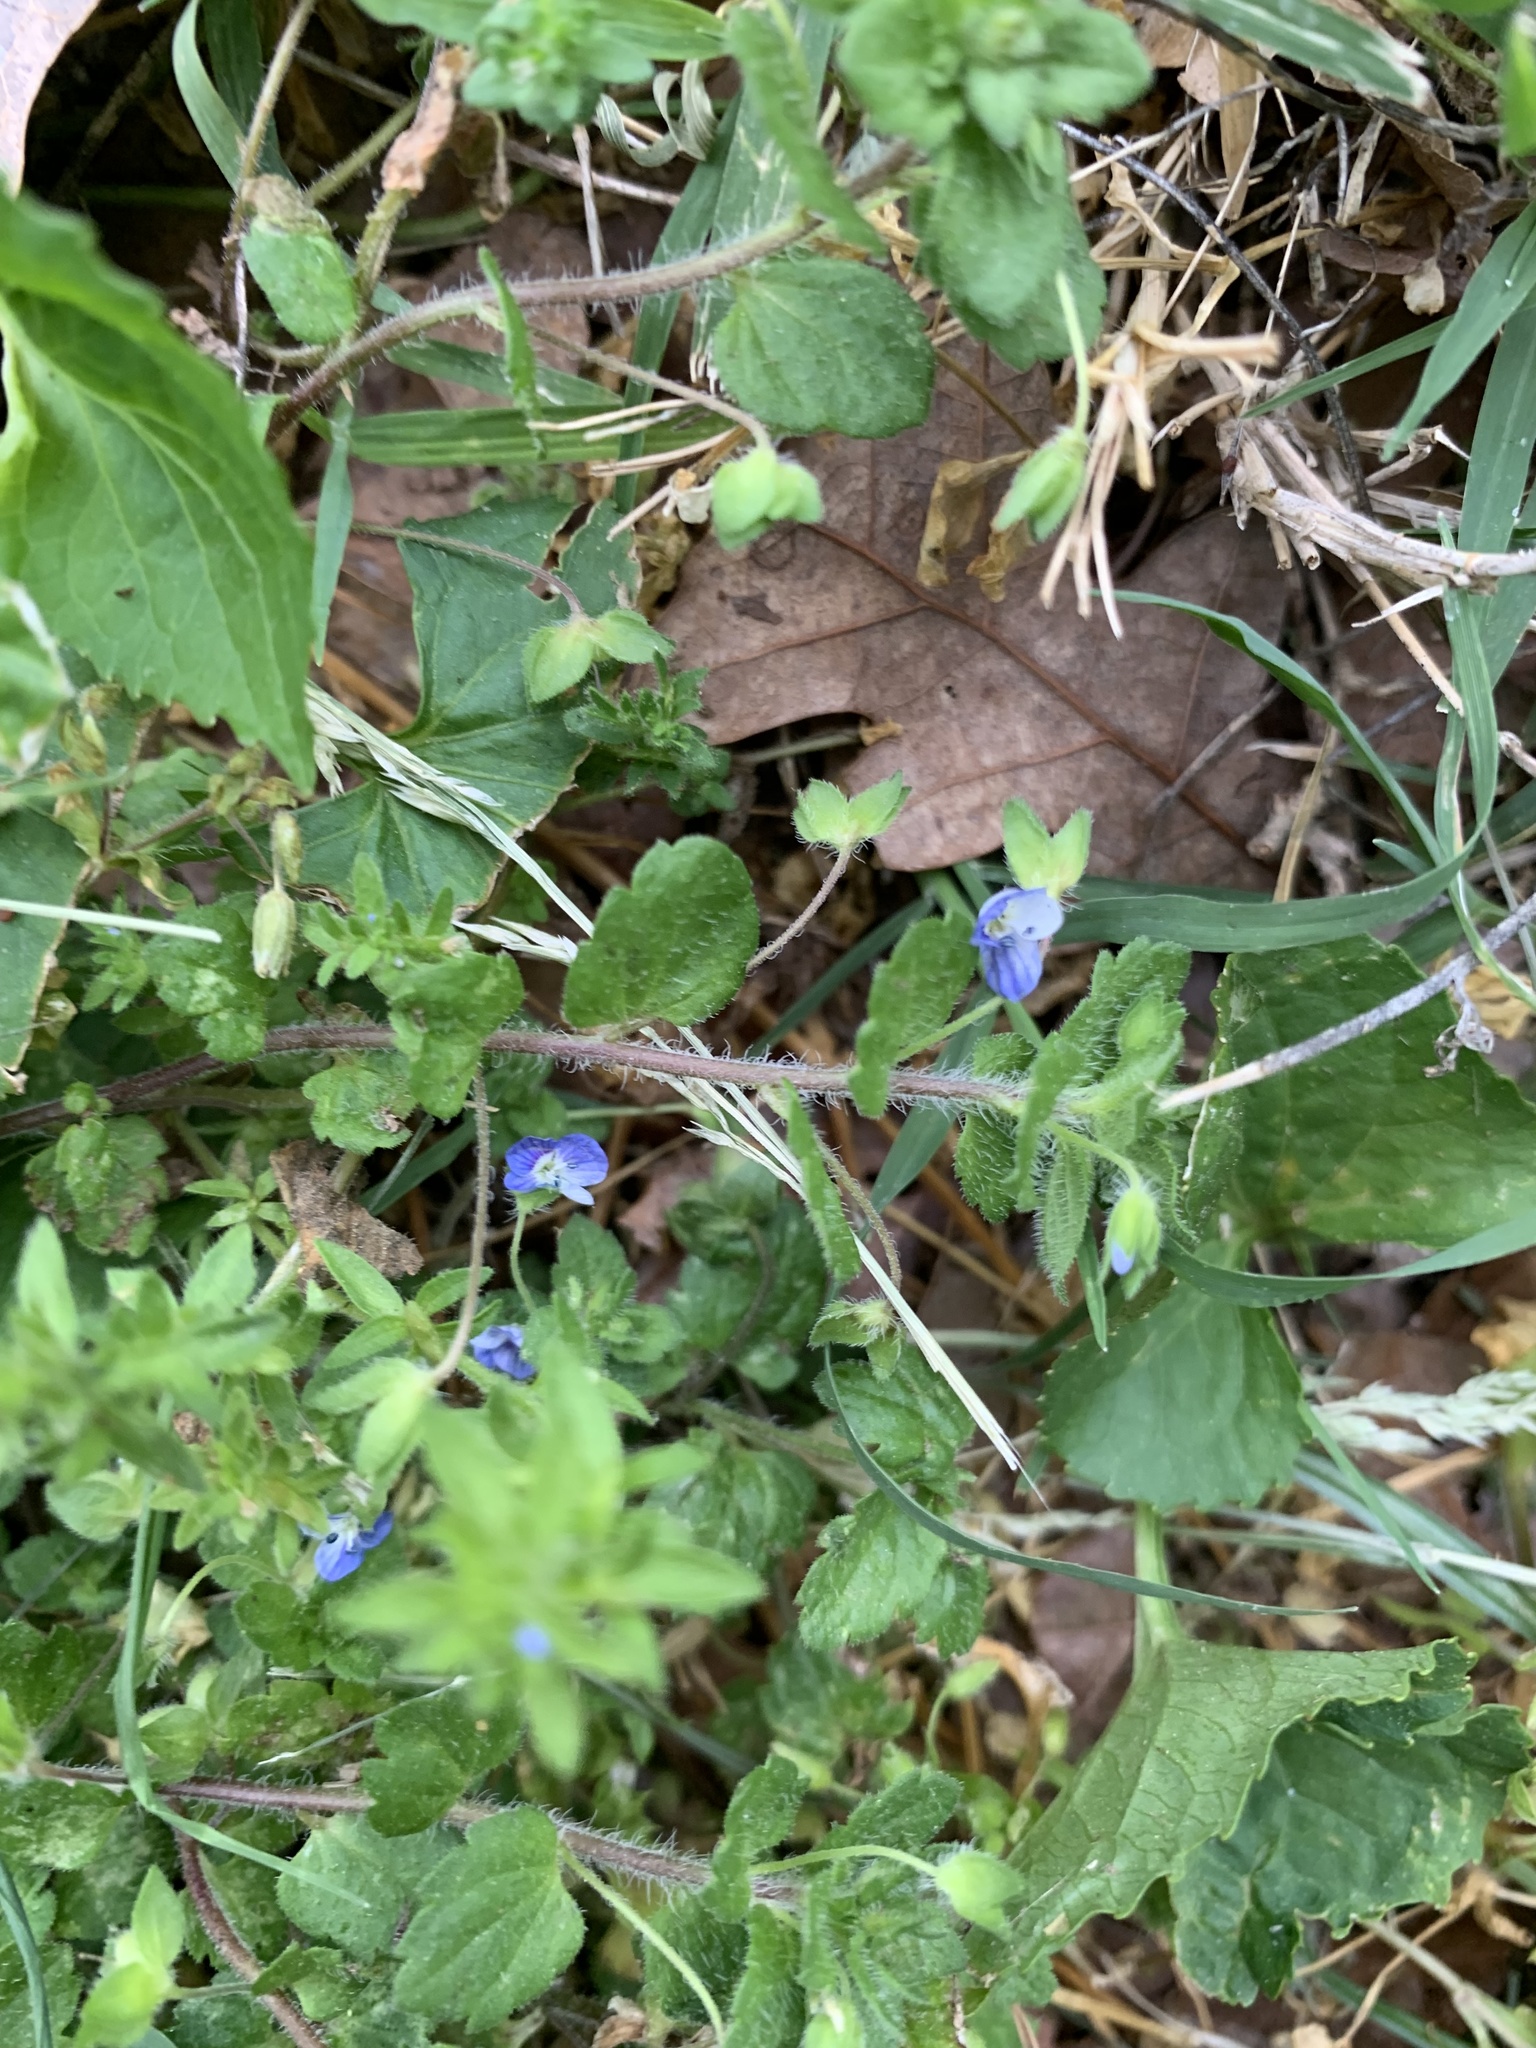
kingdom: Plantae
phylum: Tracheophyta
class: Magnoliopsida
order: Lamiales
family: Plantaginaceae
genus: Veronica
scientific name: Veronica persica
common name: Common field-speedwell
